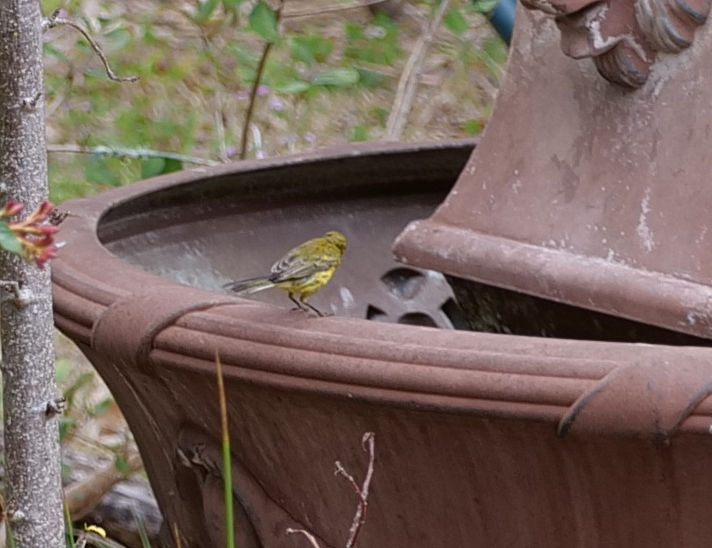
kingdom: Animalia
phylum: Chordata
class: Aves
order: Passeriformes
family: Parulidae
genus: Setophaga
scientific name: Setophaga pinus
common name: Pine warbler
